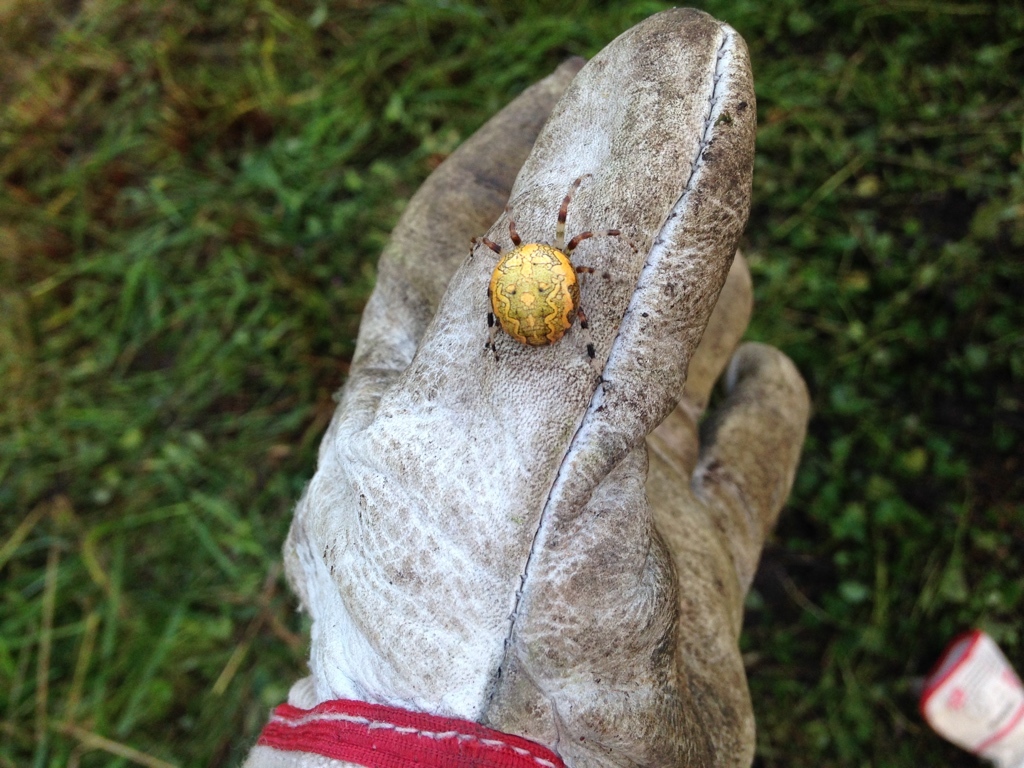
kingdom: Animalia
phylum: Arthropoda
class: Arachnida
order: Araneae
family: Araneidae
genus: Araneus
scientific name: Araneus marmoreus
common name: Marbled orbweaver
